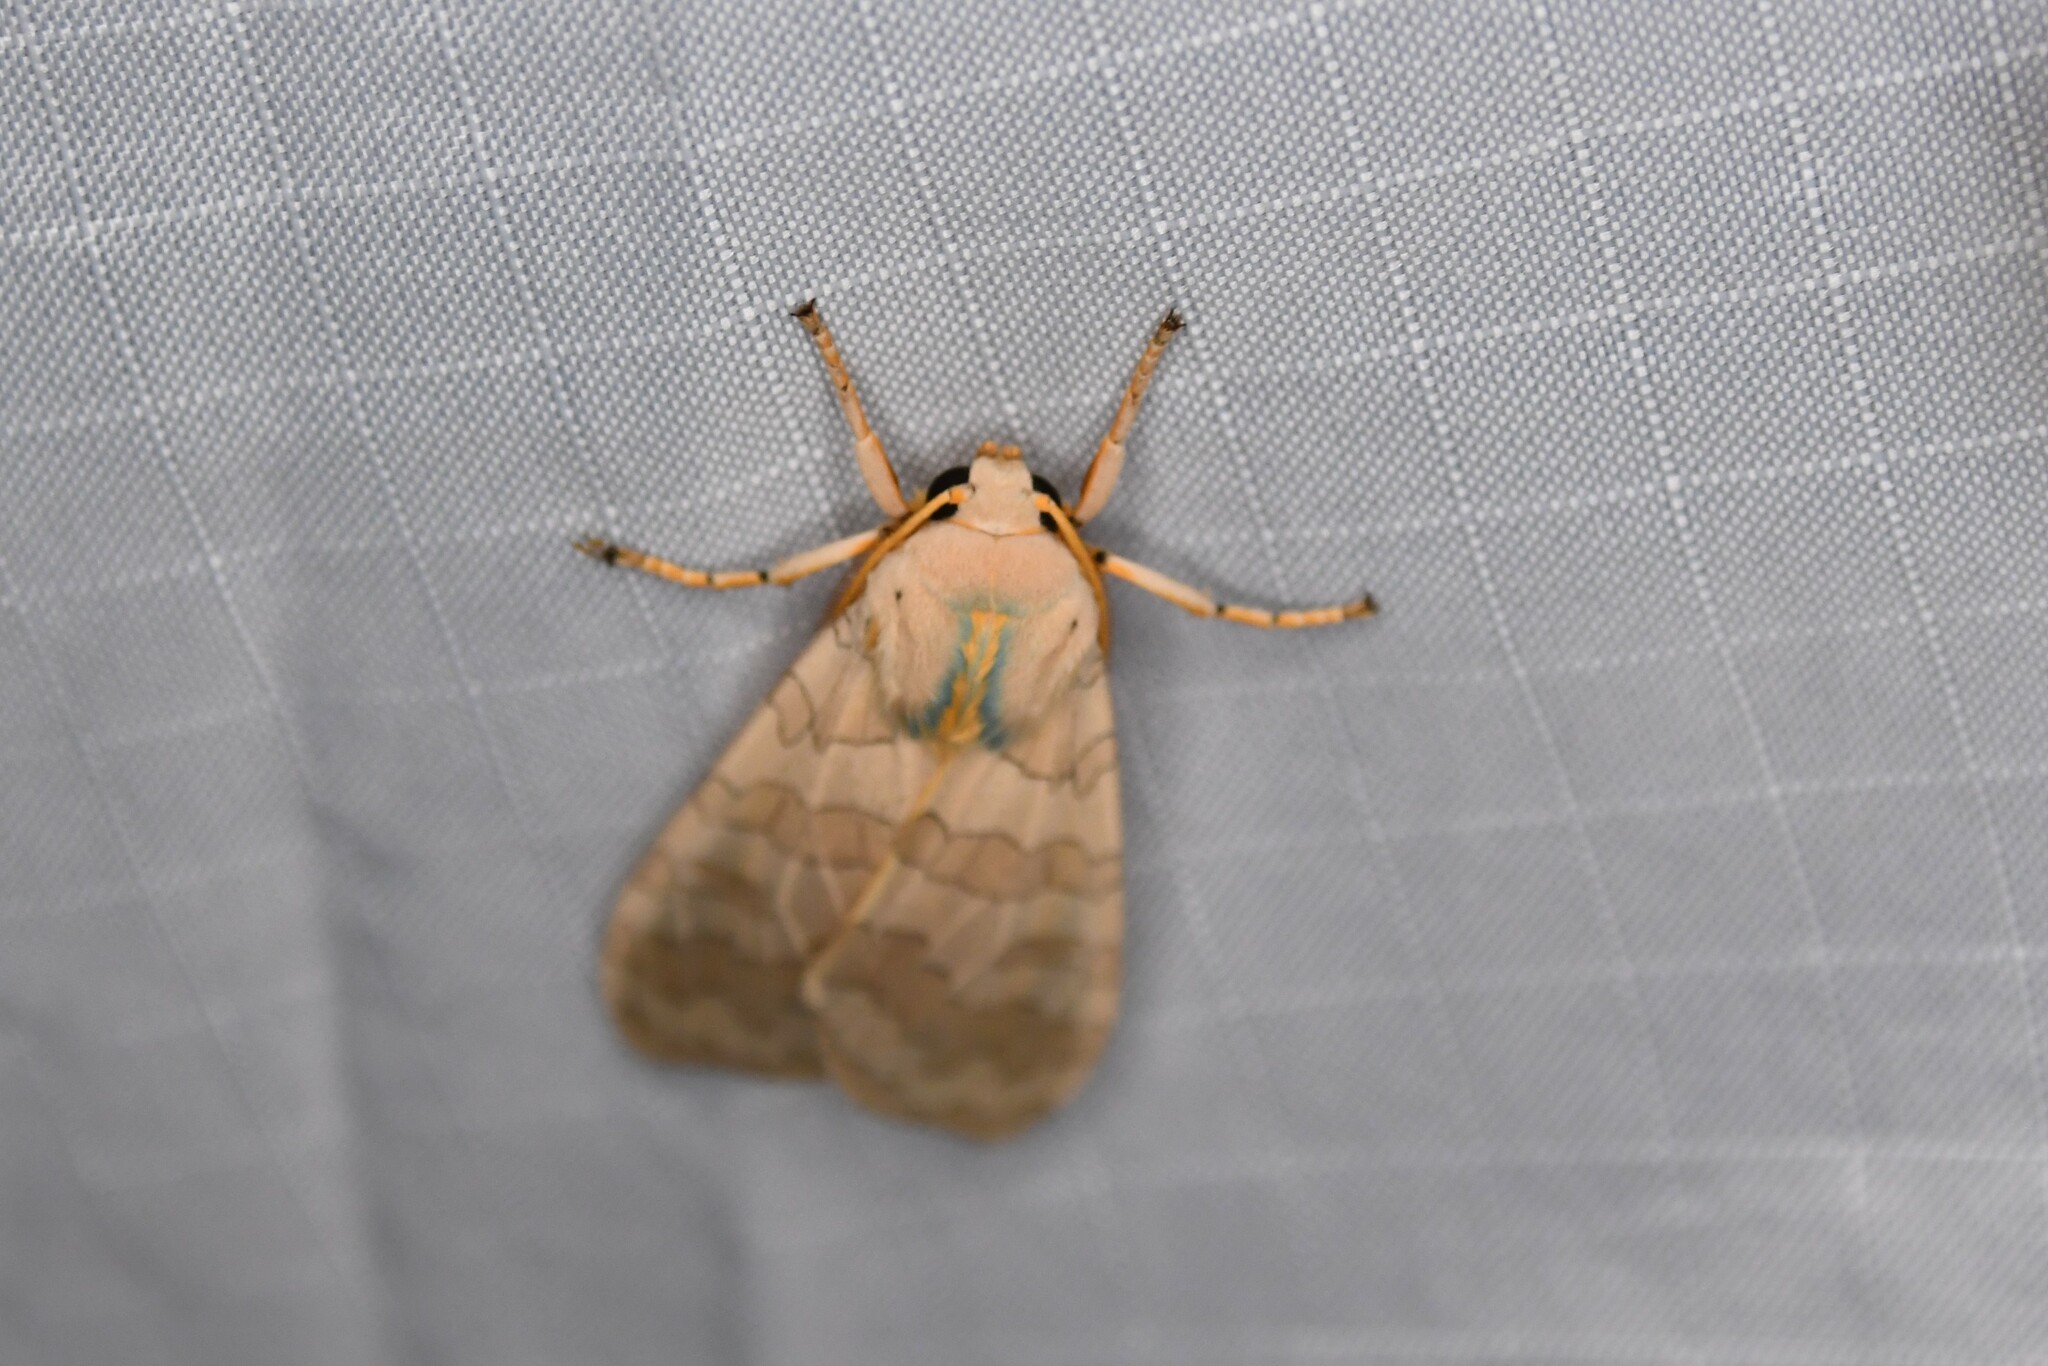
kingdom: Animalia
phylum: Arthropoda
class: Insecta
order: Lepidoptera
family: Erebidae
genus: Halysidota
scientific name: Halysidota tessellaris
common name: Banded tussock moth
